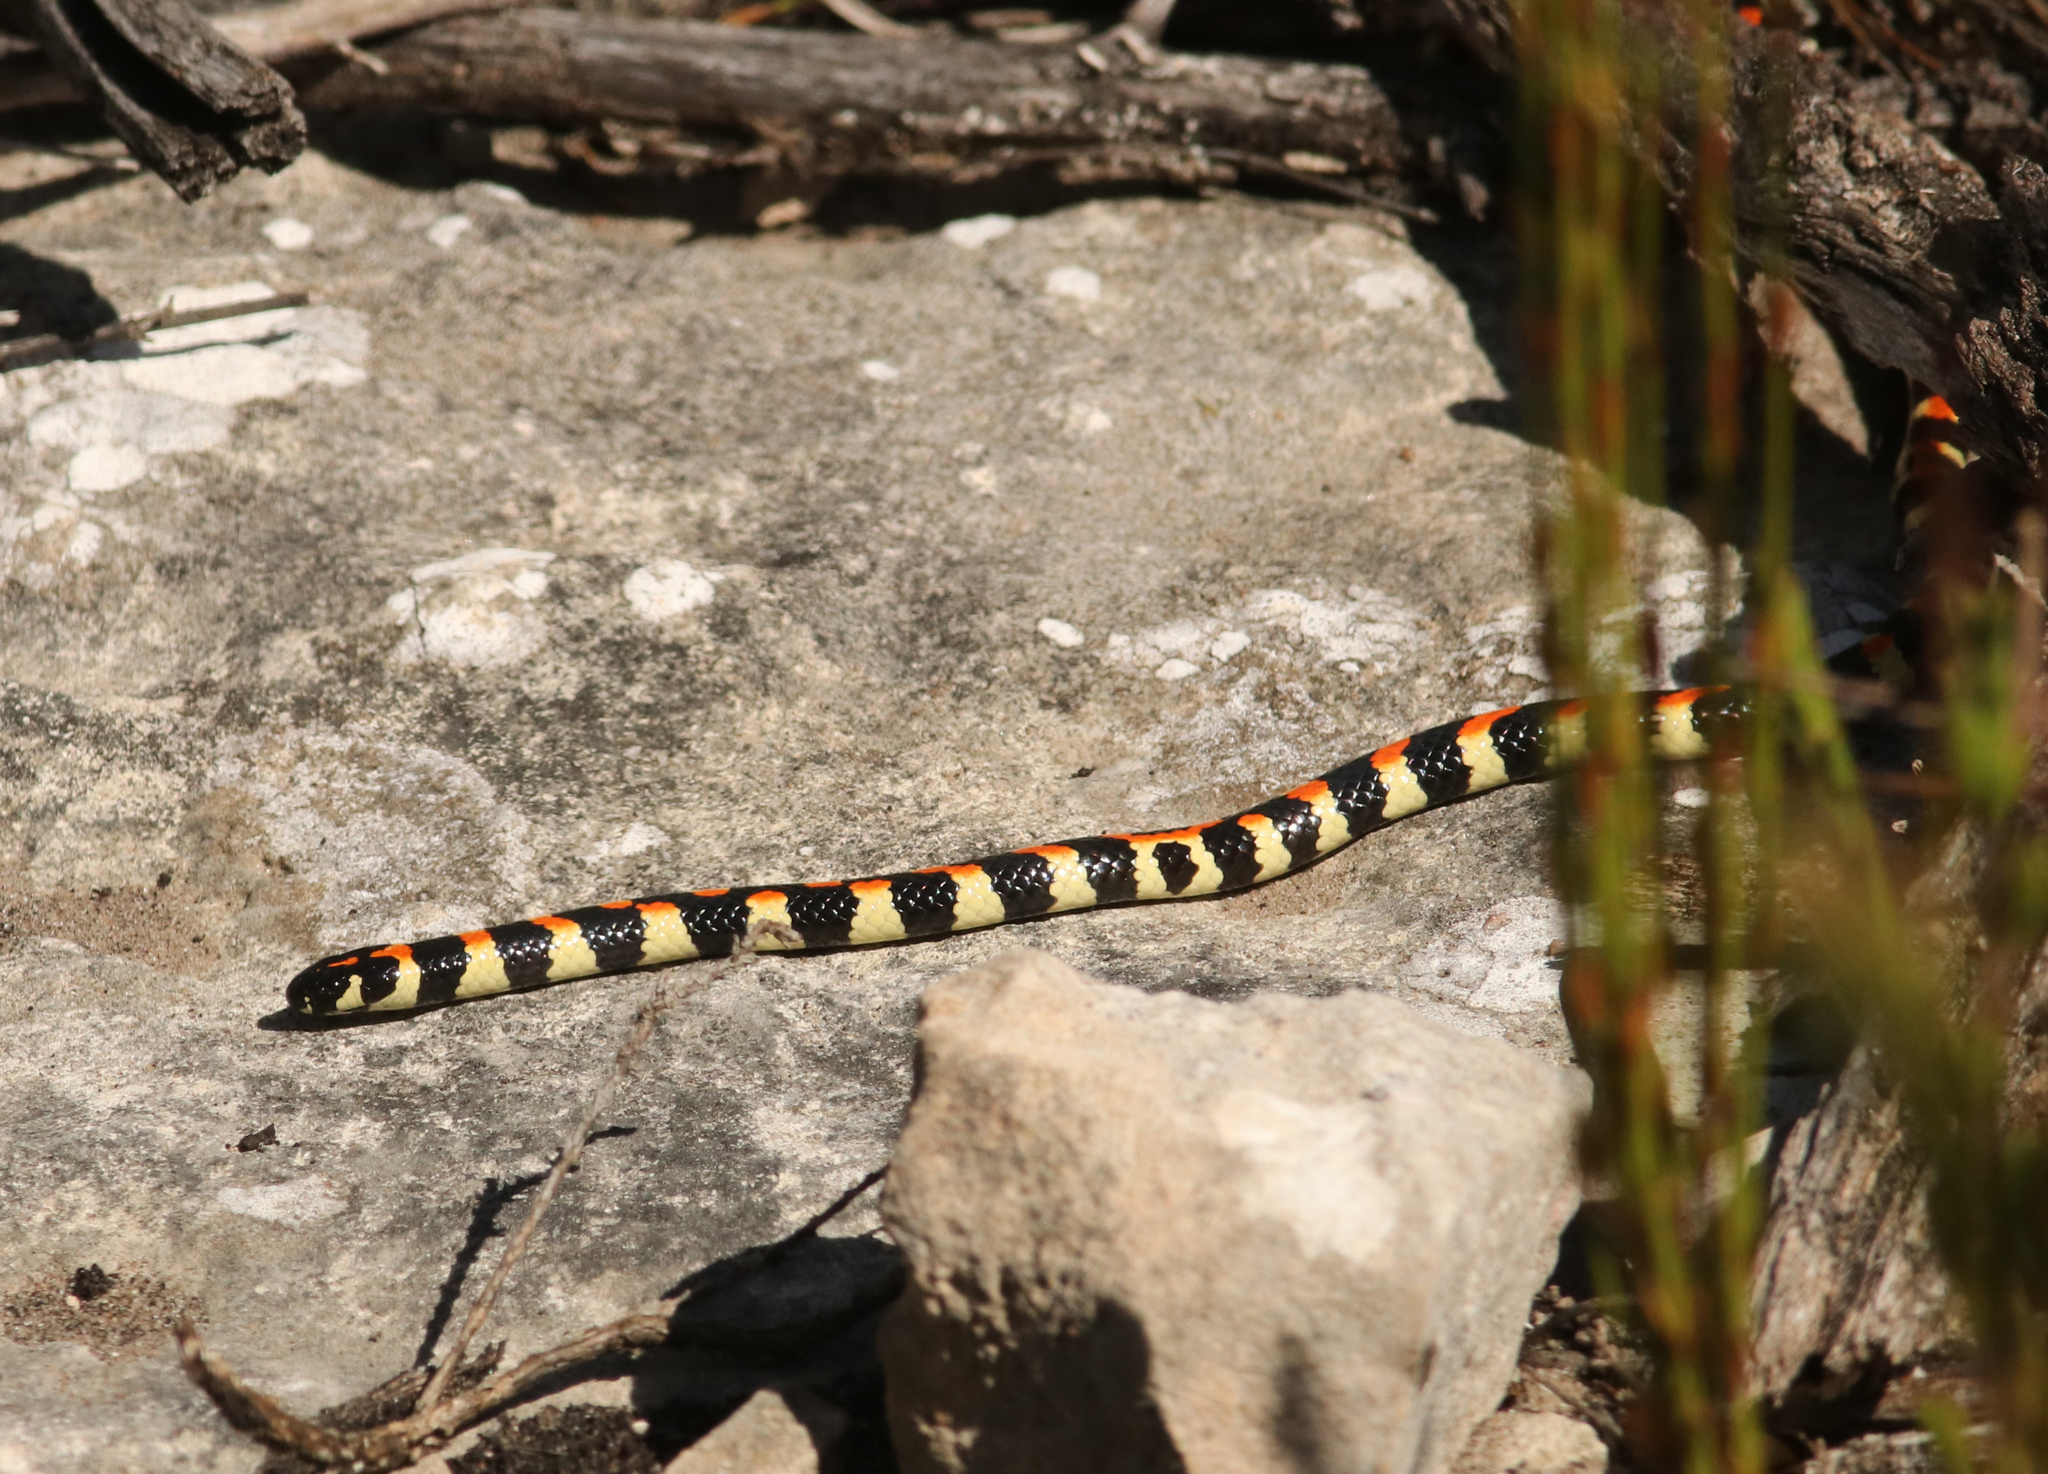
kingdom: Animalia
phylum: Chordata
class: Squamata
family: Atractaspididae
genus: Homoroselaps
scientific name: Homoroselaps lacteus
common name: Spotted harlequin snake
